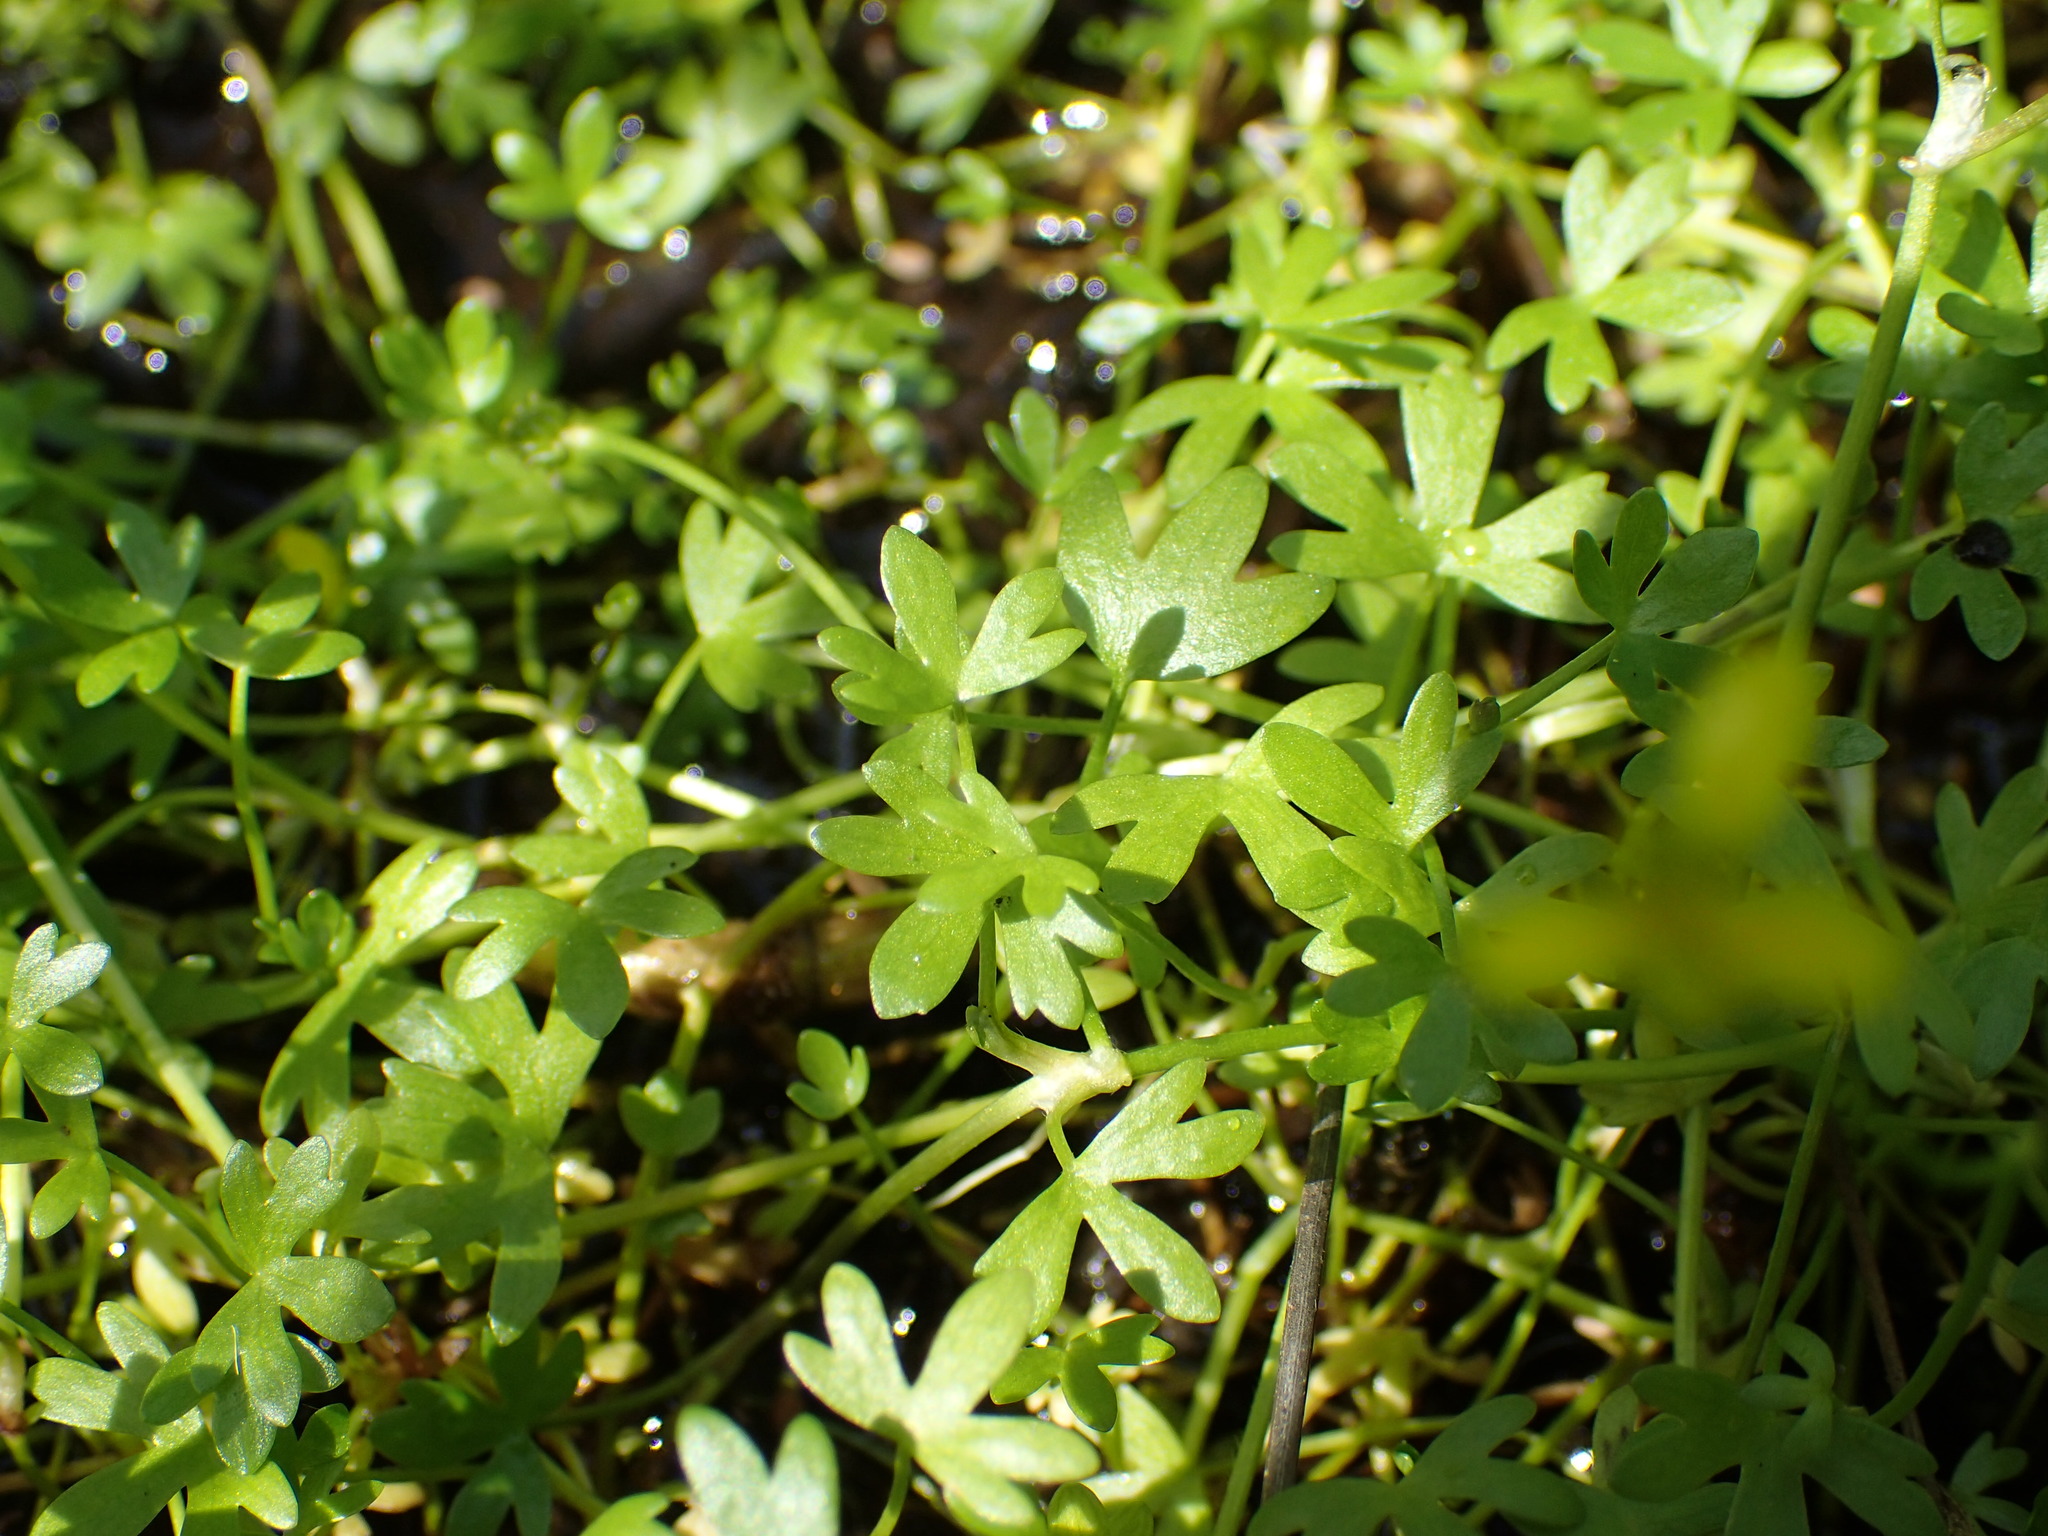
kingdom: Plantae
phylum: Tracheophyta
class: Magnoliopsida
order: Ranunculales
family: Ranunculaceae
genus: Ranunculus
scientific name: Ranunculus gmelinii
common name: Gmelin's buttercup
